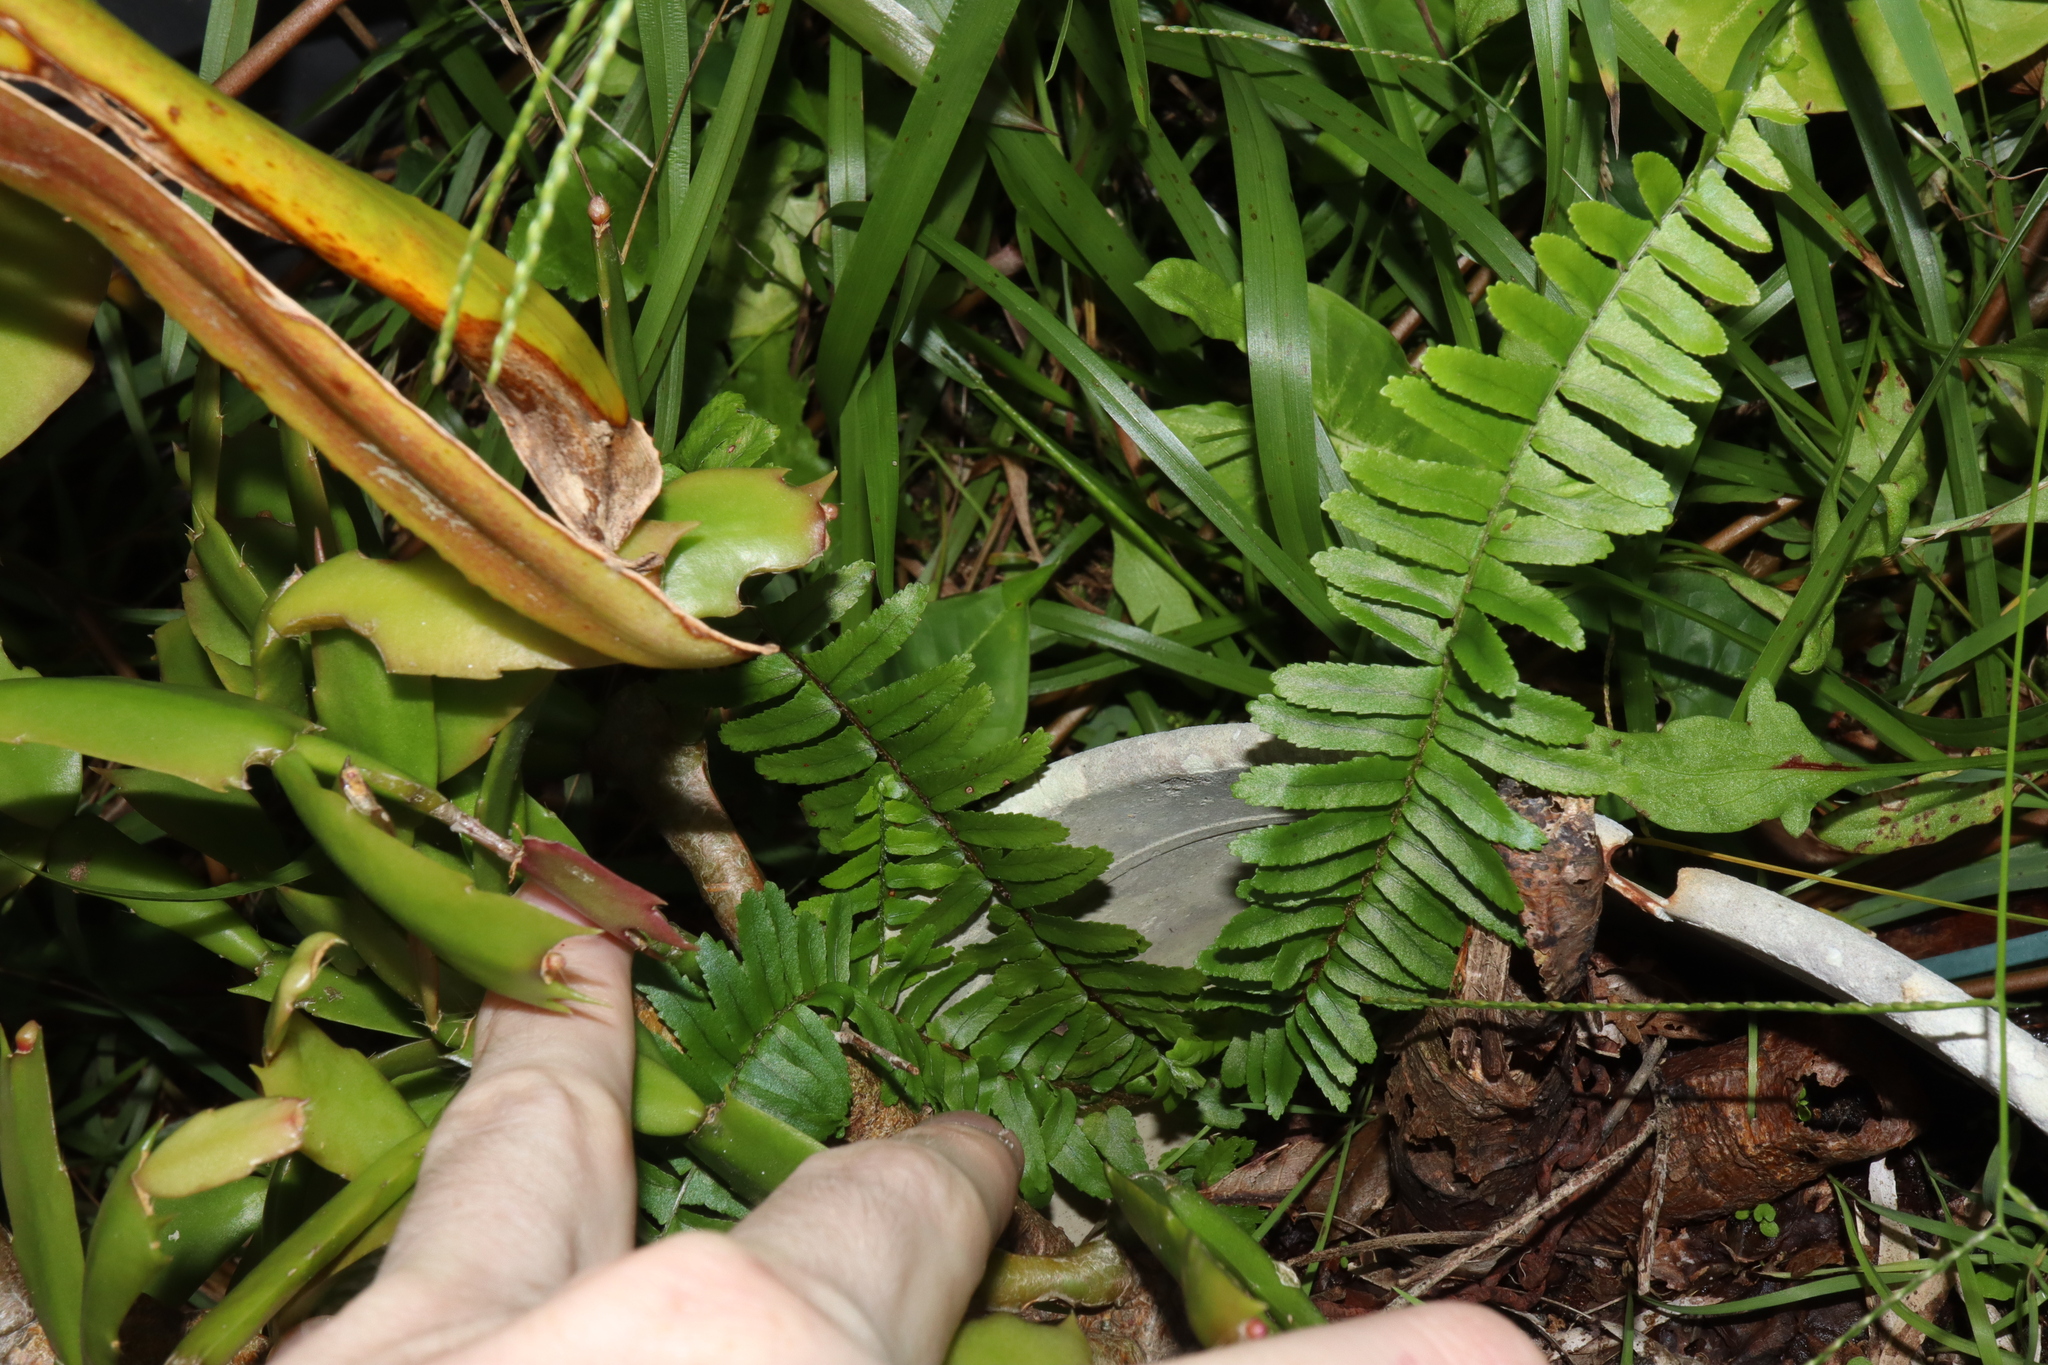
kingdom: Plantae
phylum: Tracheophyta
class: Polypodiopsida
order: Polypodiales
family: Nephrolepidaceae
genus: Nephrolepis
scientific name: Nephrolepis cordifolia
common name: Narrow swordfern
